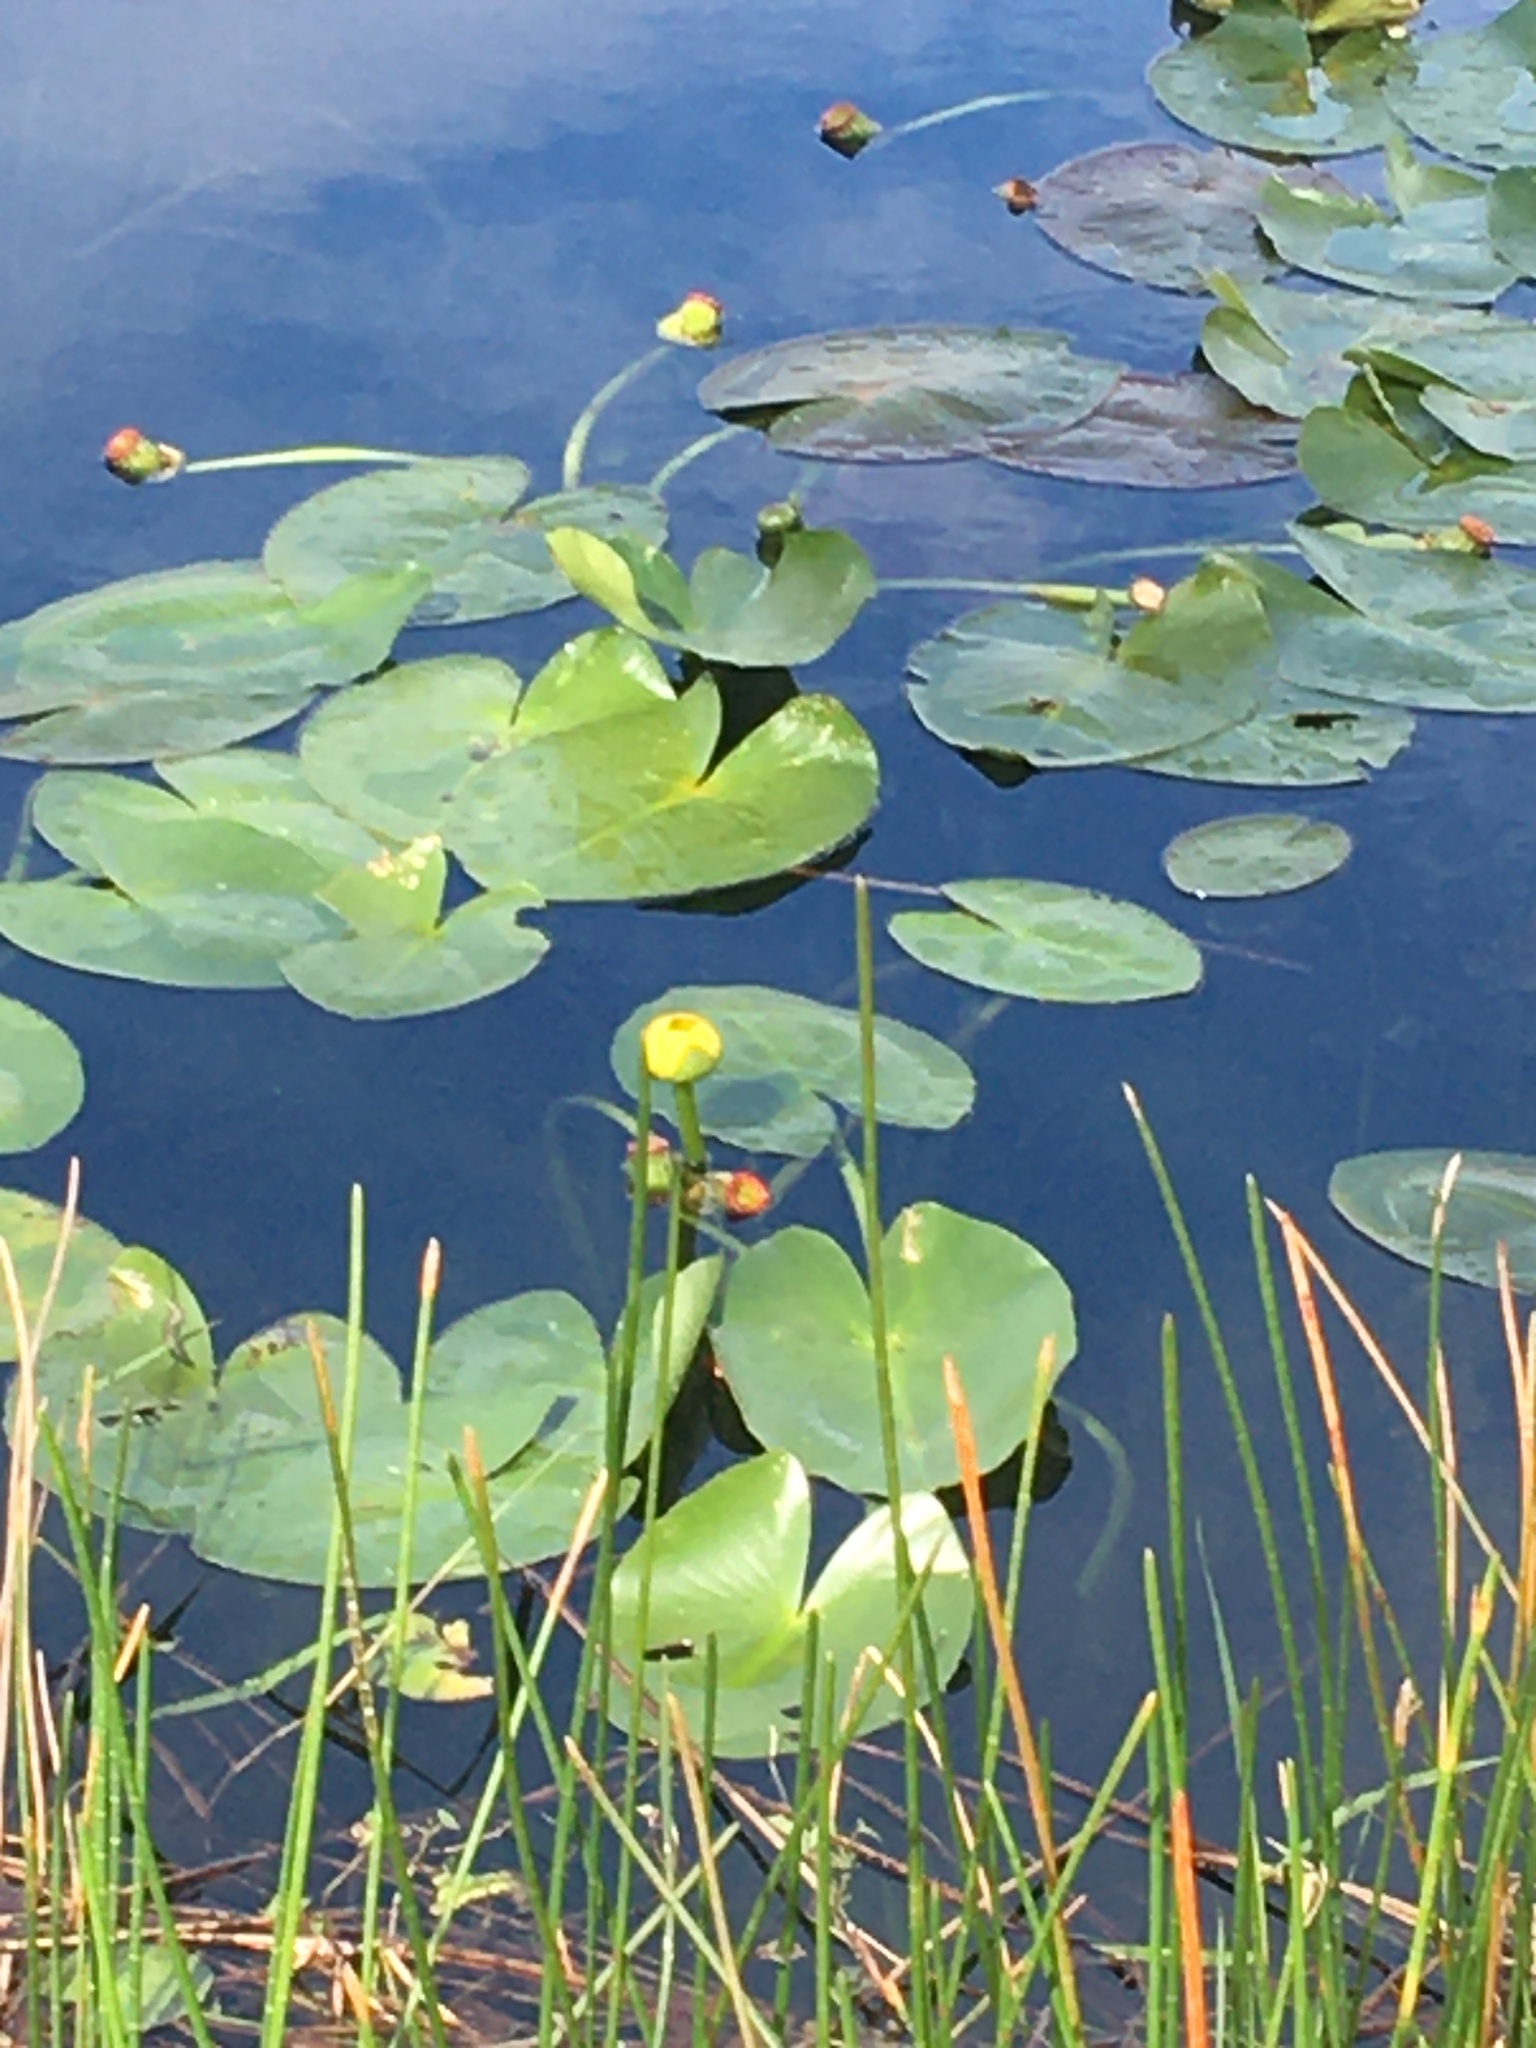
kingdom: Plantae
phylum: Tracheophyta
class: Magnoliopsida
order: Nymphaeales
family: Nymphaeaceae
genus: Nuphar
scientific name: Nuphar advena
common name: Spatter-dock
